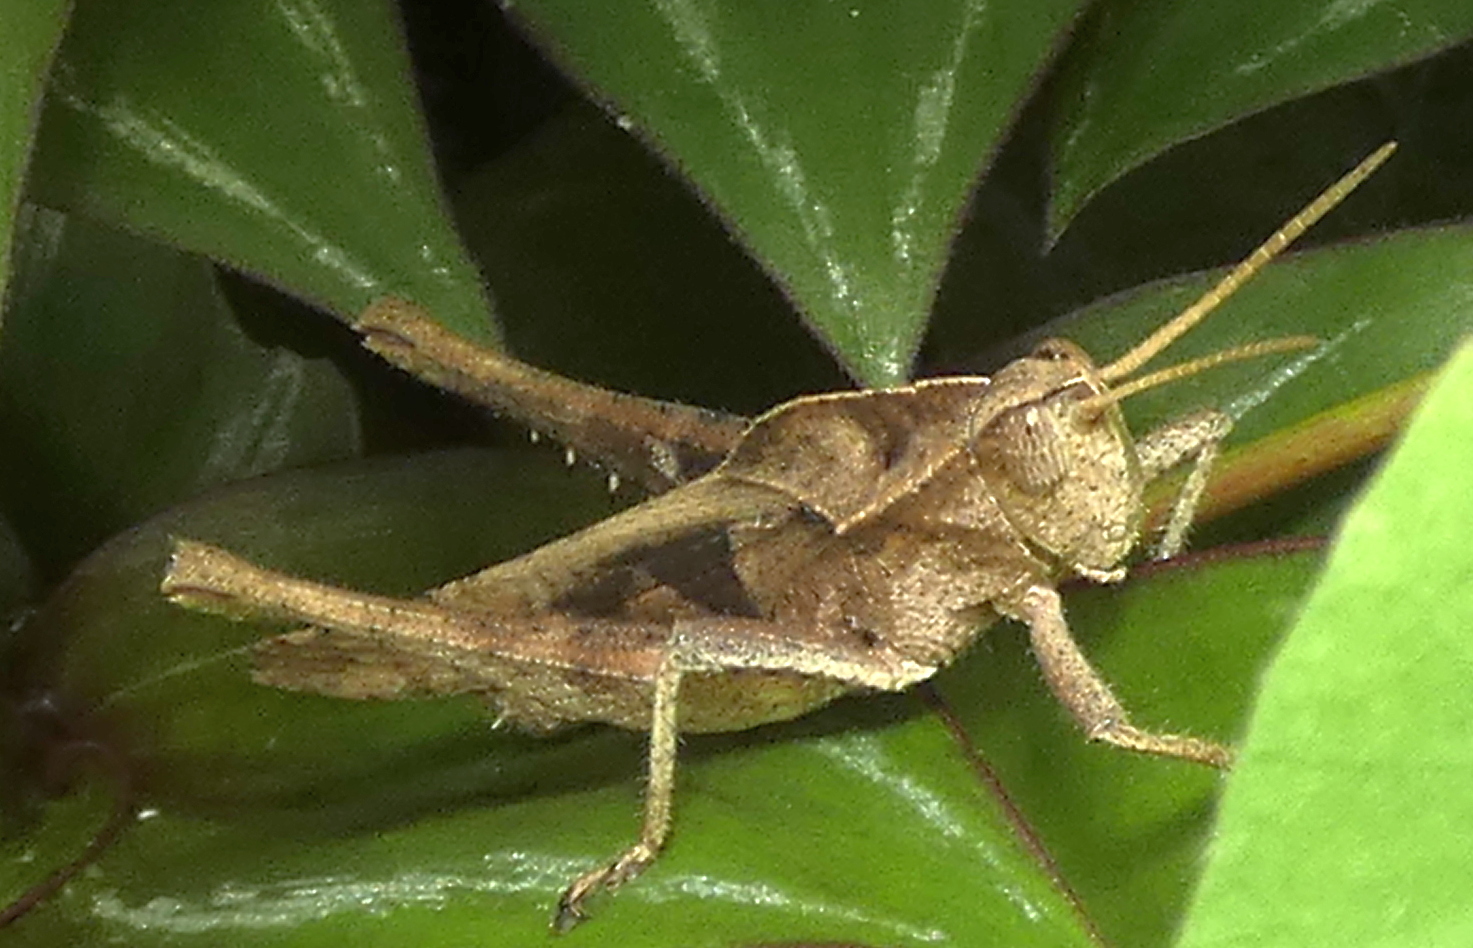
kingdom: Animalia
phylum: Arthropoda
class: Insecta
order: Orthoptera
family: Romaleidae
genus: Xyleus
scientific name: Xyleus discoideus
